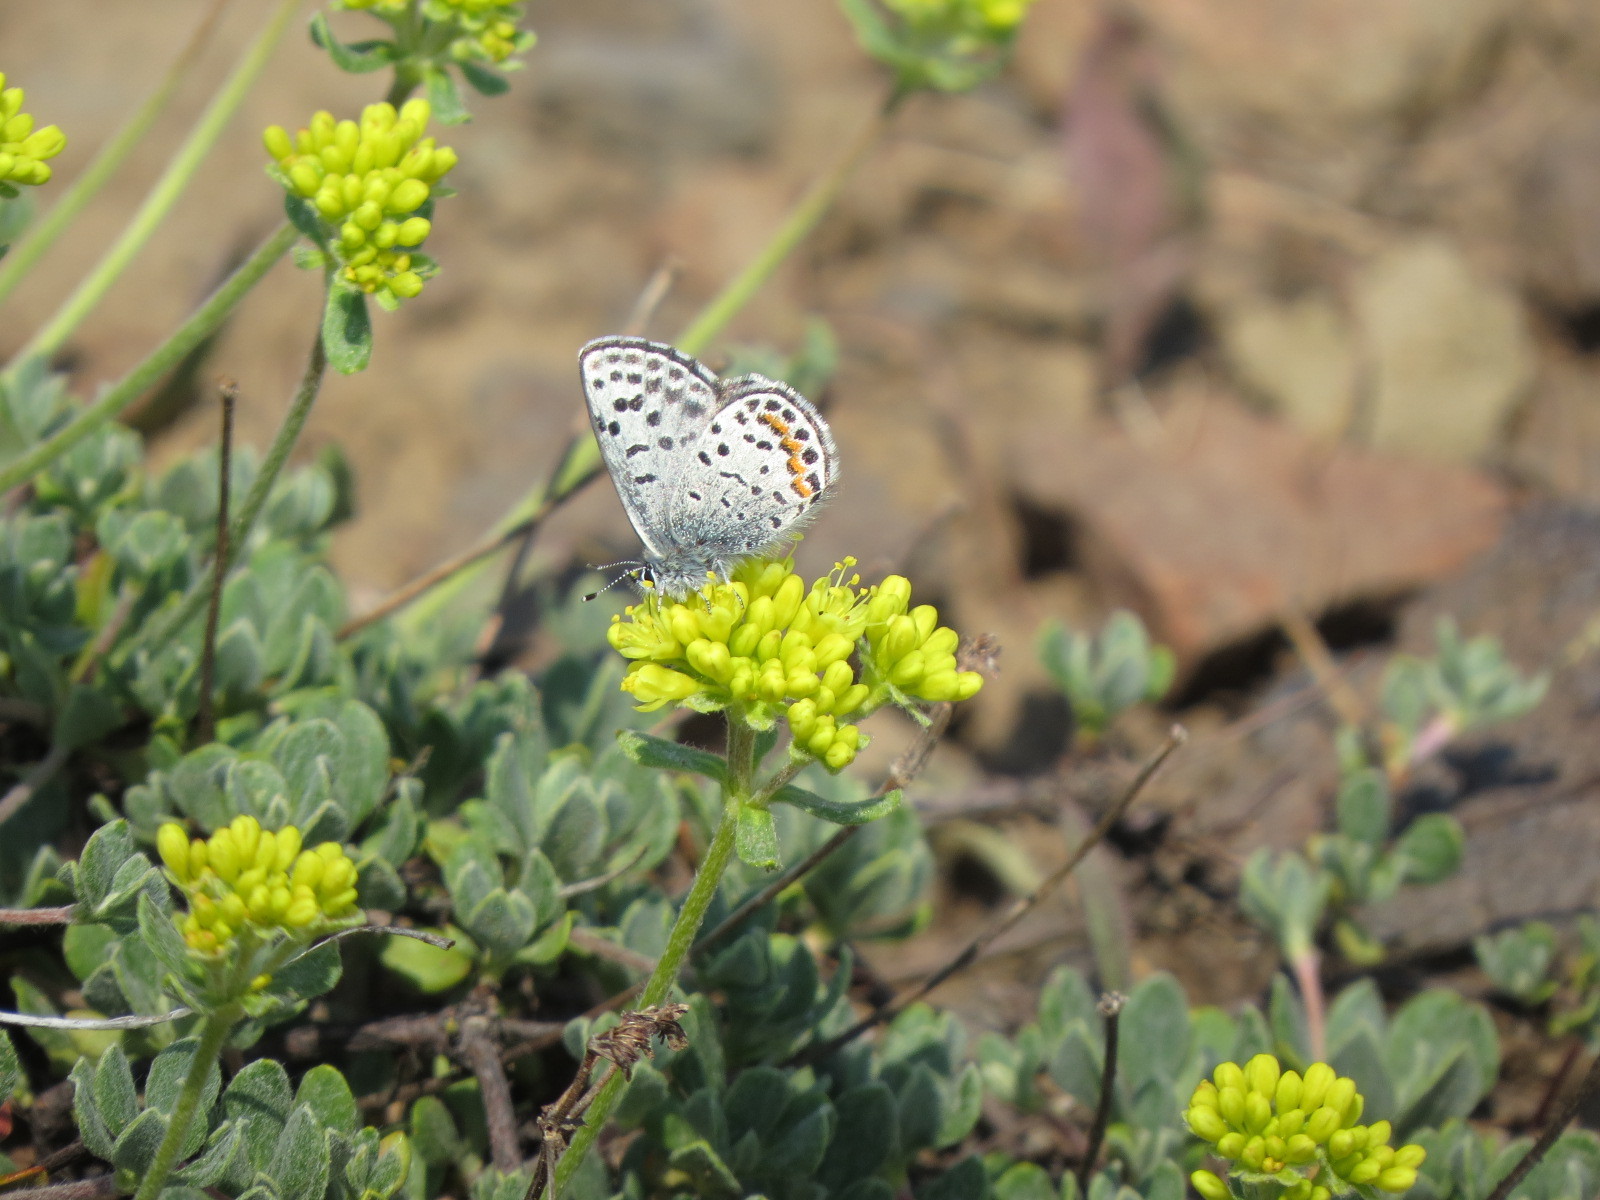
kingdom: Animalia
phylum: Arthropoda
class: Insecta
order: Lepidoptera
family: Lycaenidae
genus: Euphilotes
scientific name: Euphilotes battoides
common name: Square-spotted blue
